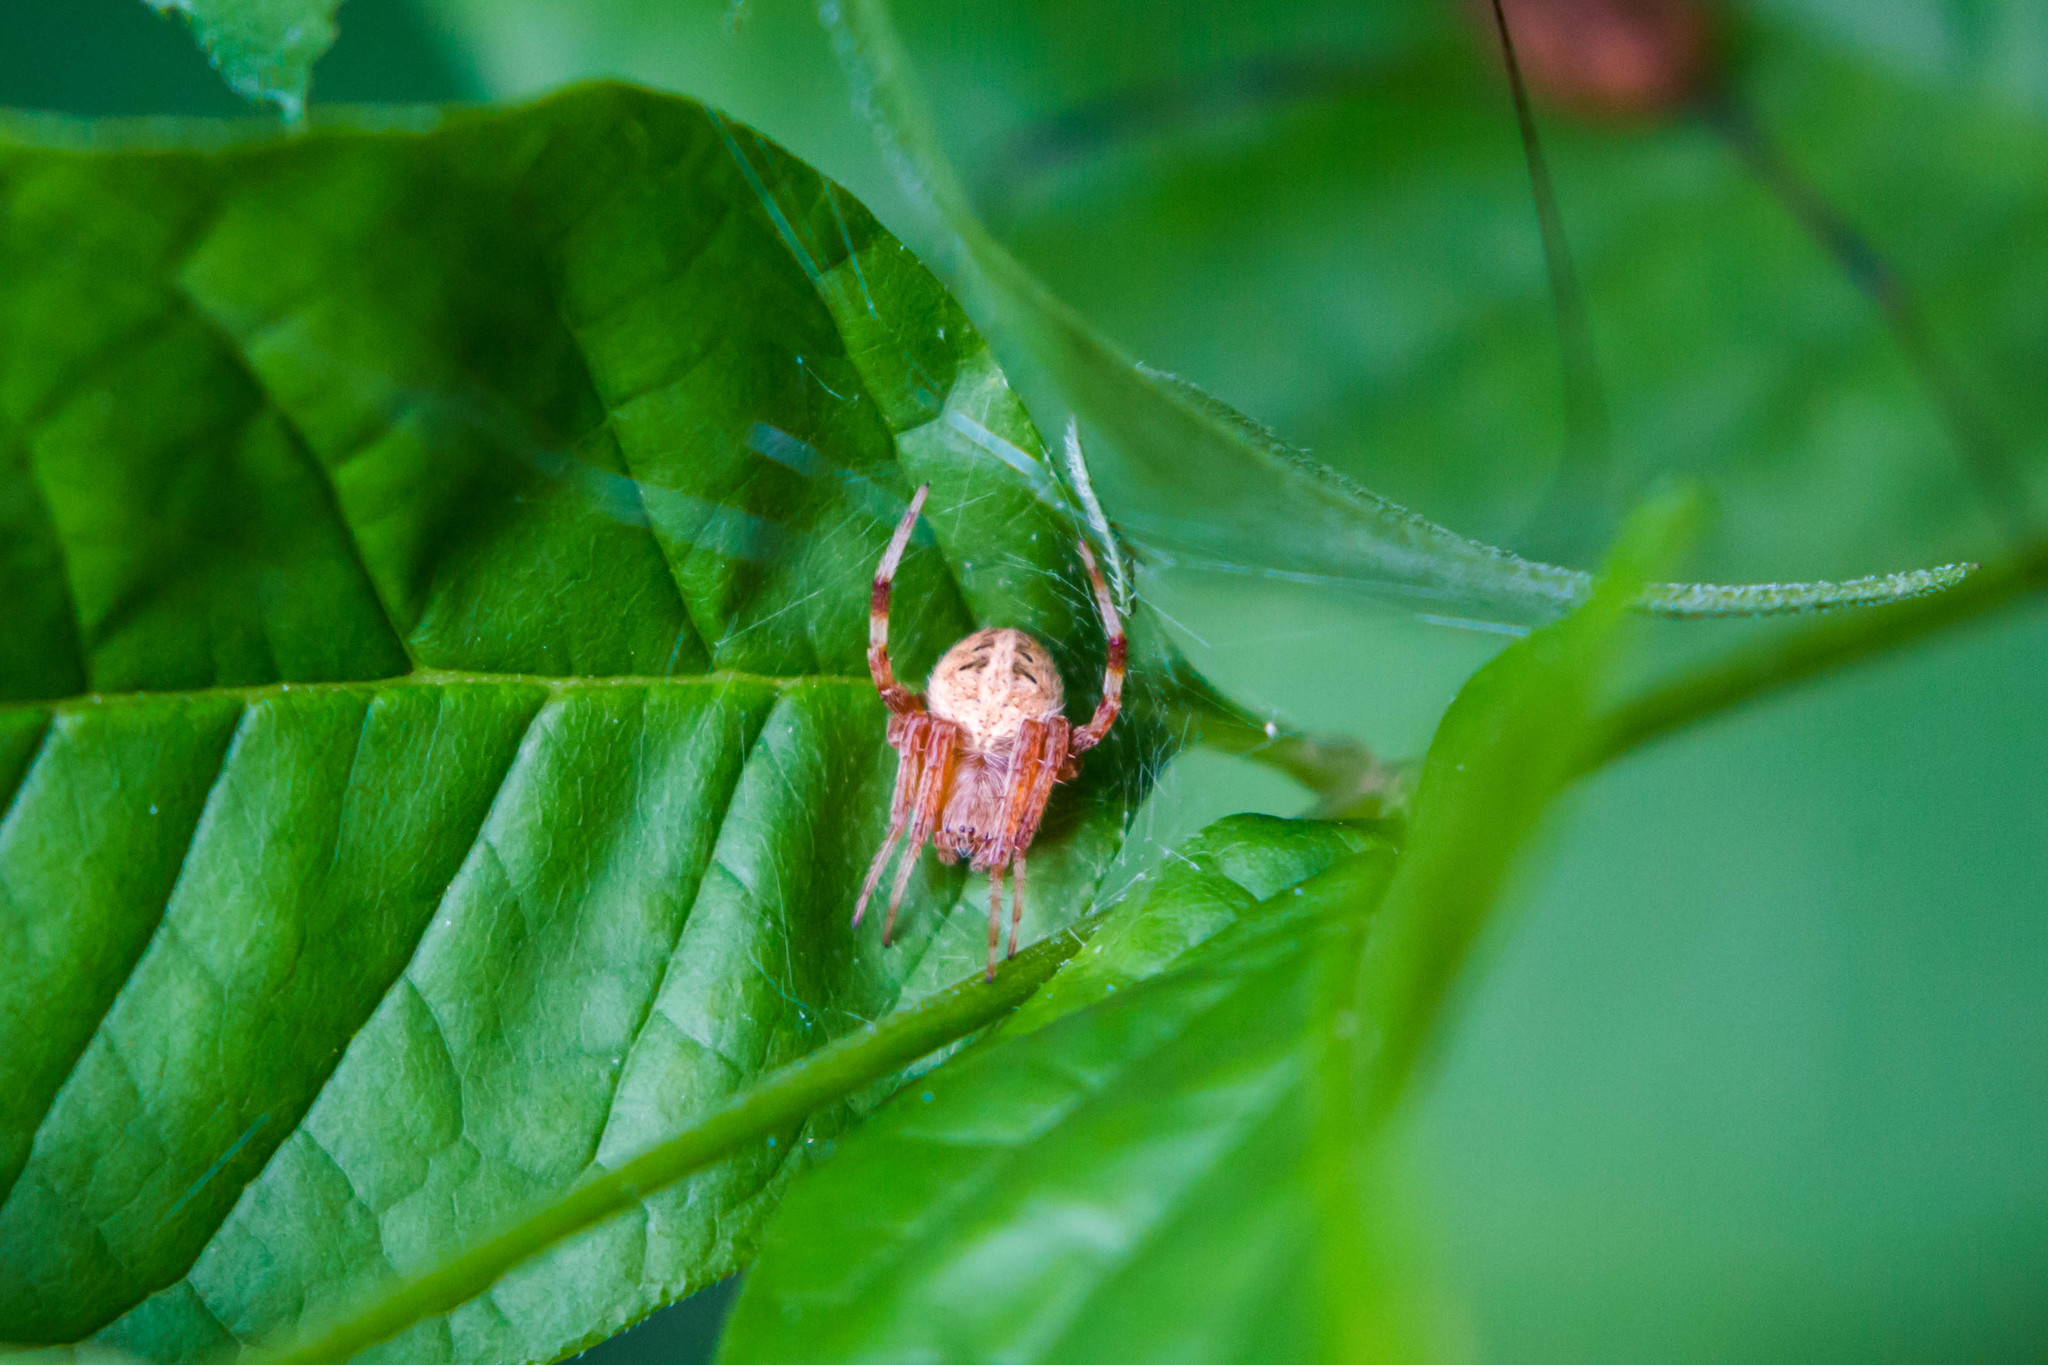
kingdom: Animalia
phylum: Arthropoda
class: Arachnida
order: Araneae
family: Araneidae
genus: Neoscona
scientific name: Neoscona arabesca
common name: Orb weavers
